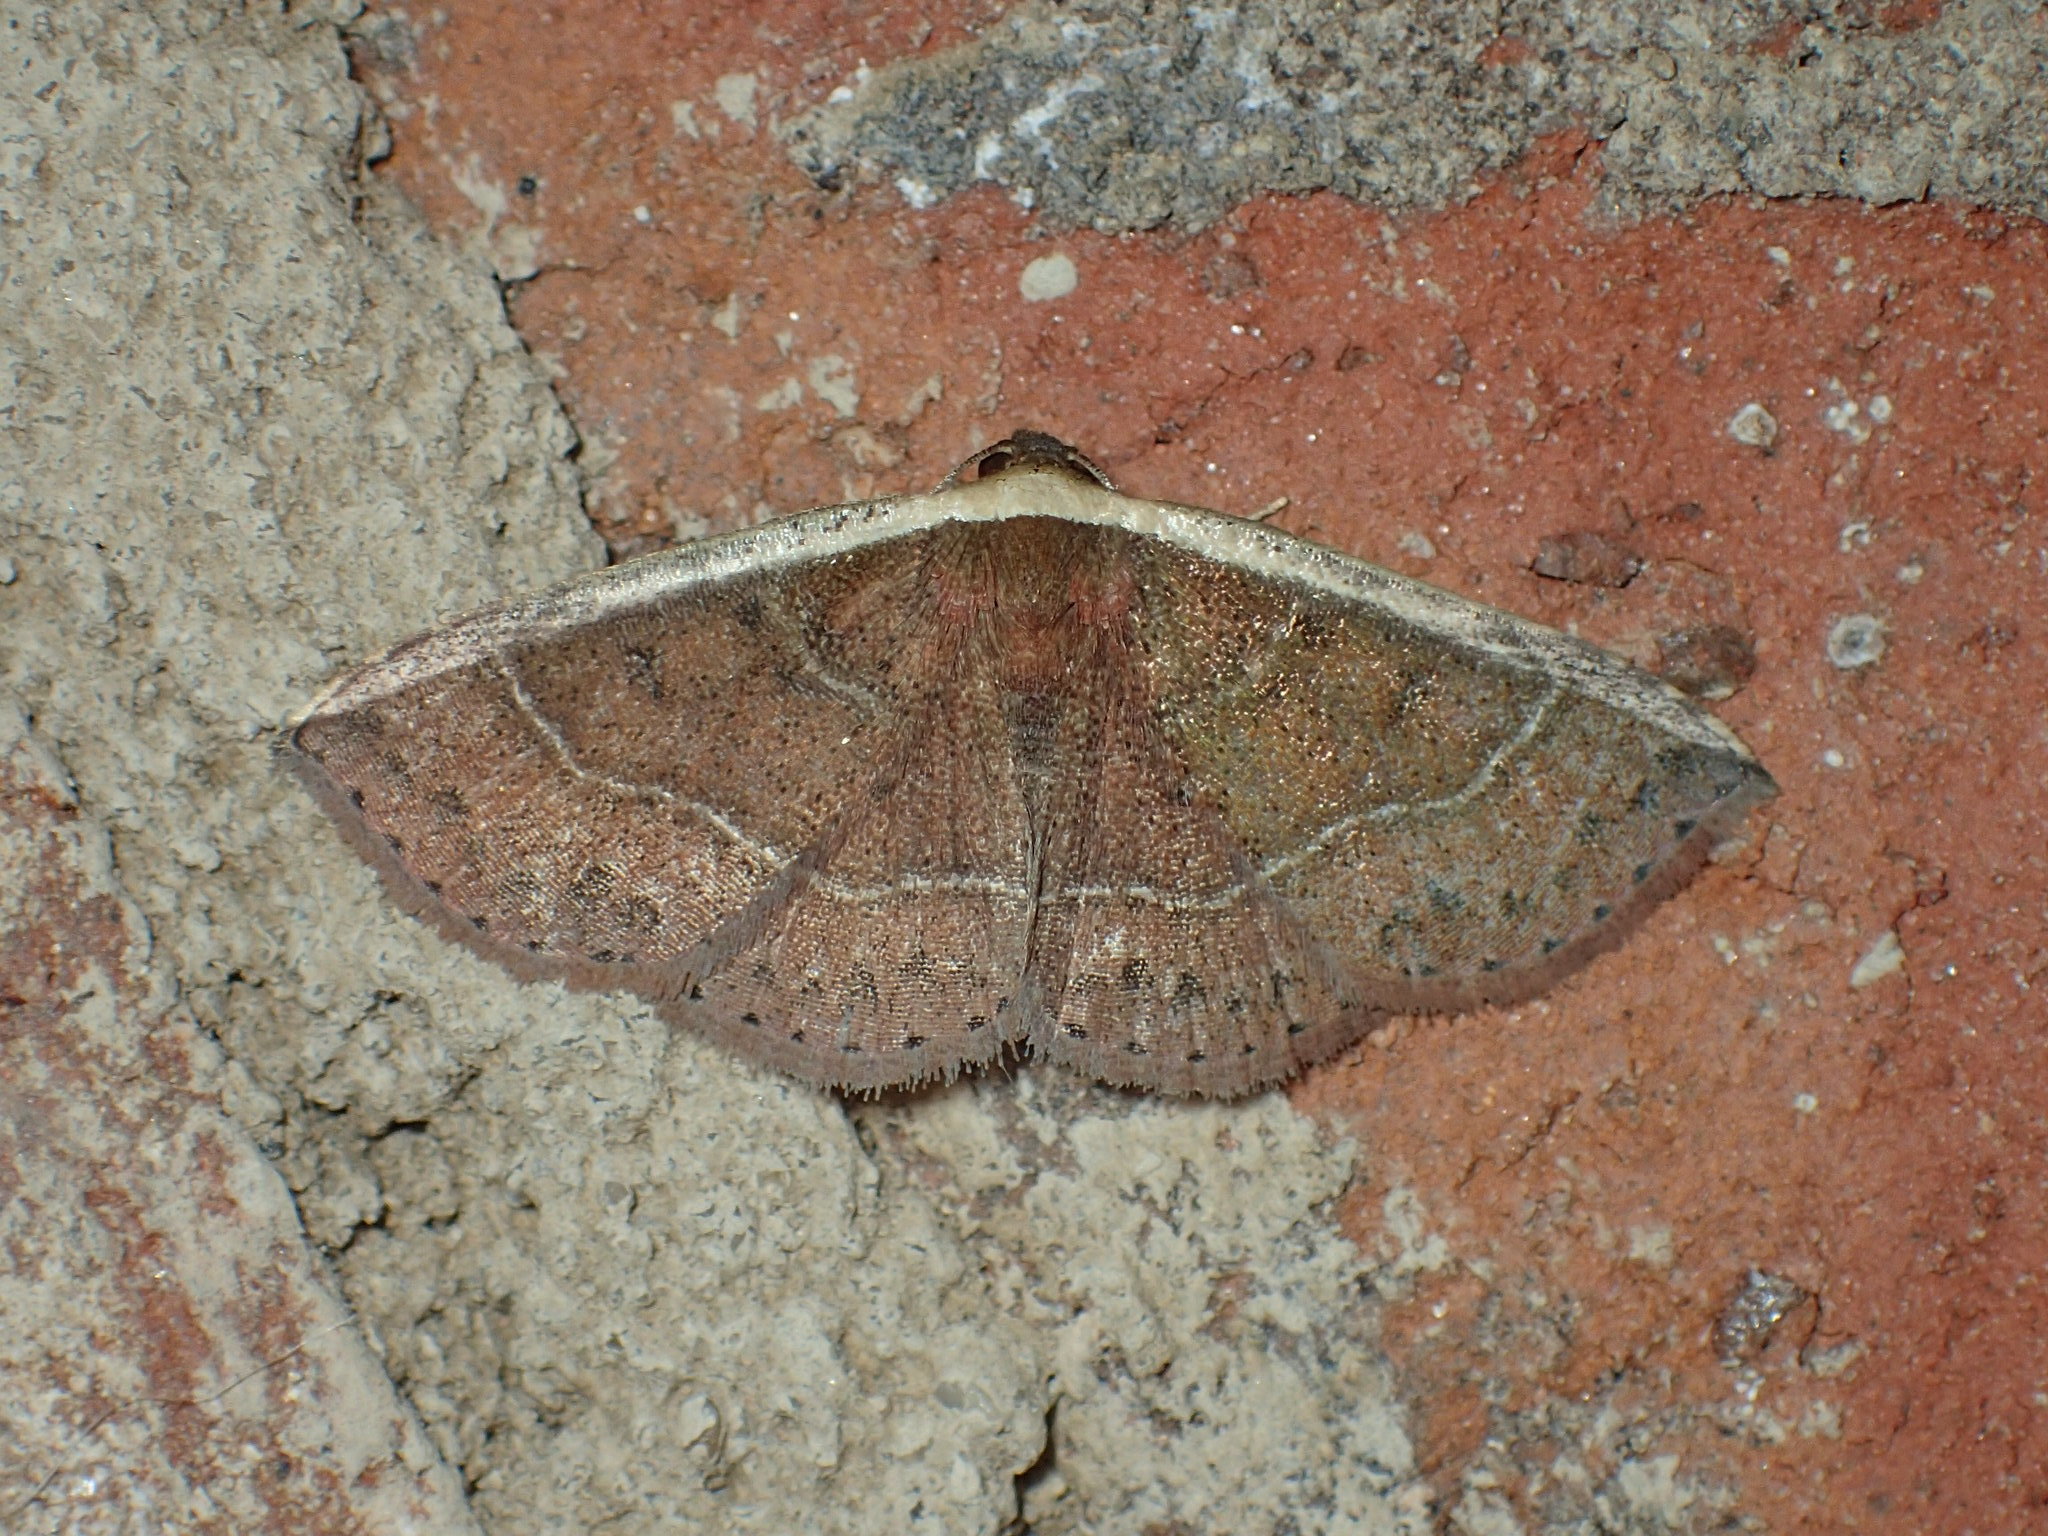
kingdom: Animalia
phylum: Arthropoda
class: Insecta
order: Lepidoptera
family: Noctuidae
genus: Ozarba
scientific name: Ozarba albocostaliata
